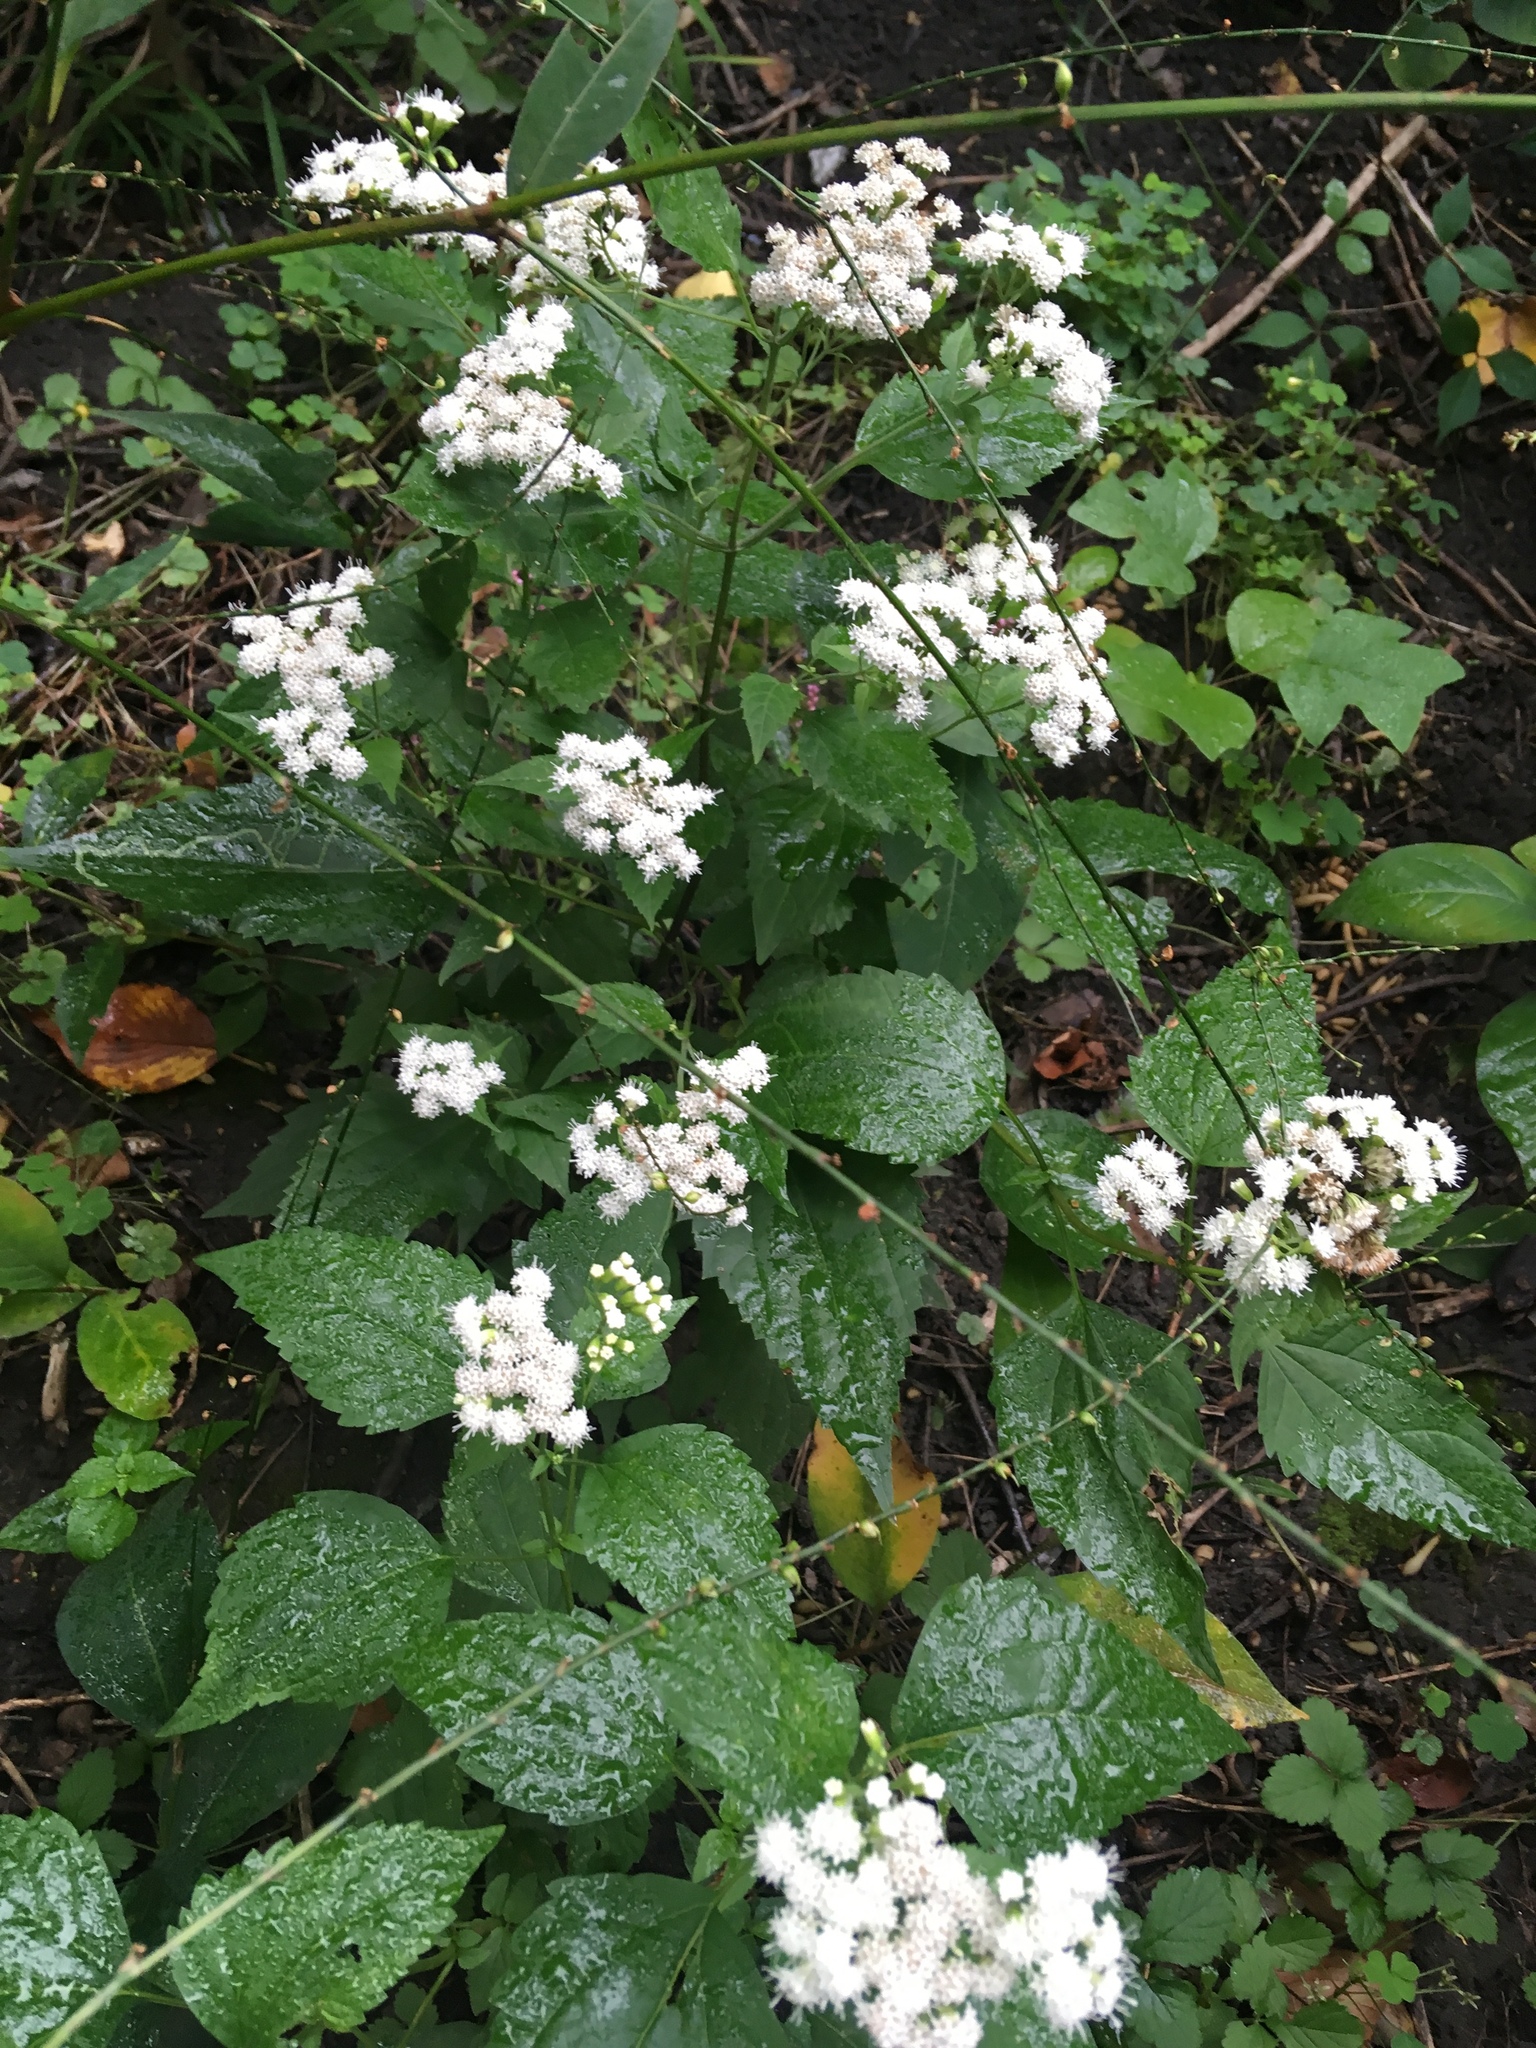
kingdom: Plantae
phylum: Tracheophyta
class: Magnoliopsida
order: Asterales
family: Asteraceae
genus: Ageratina
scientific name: Ageratina altissima
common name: White snakeroot
